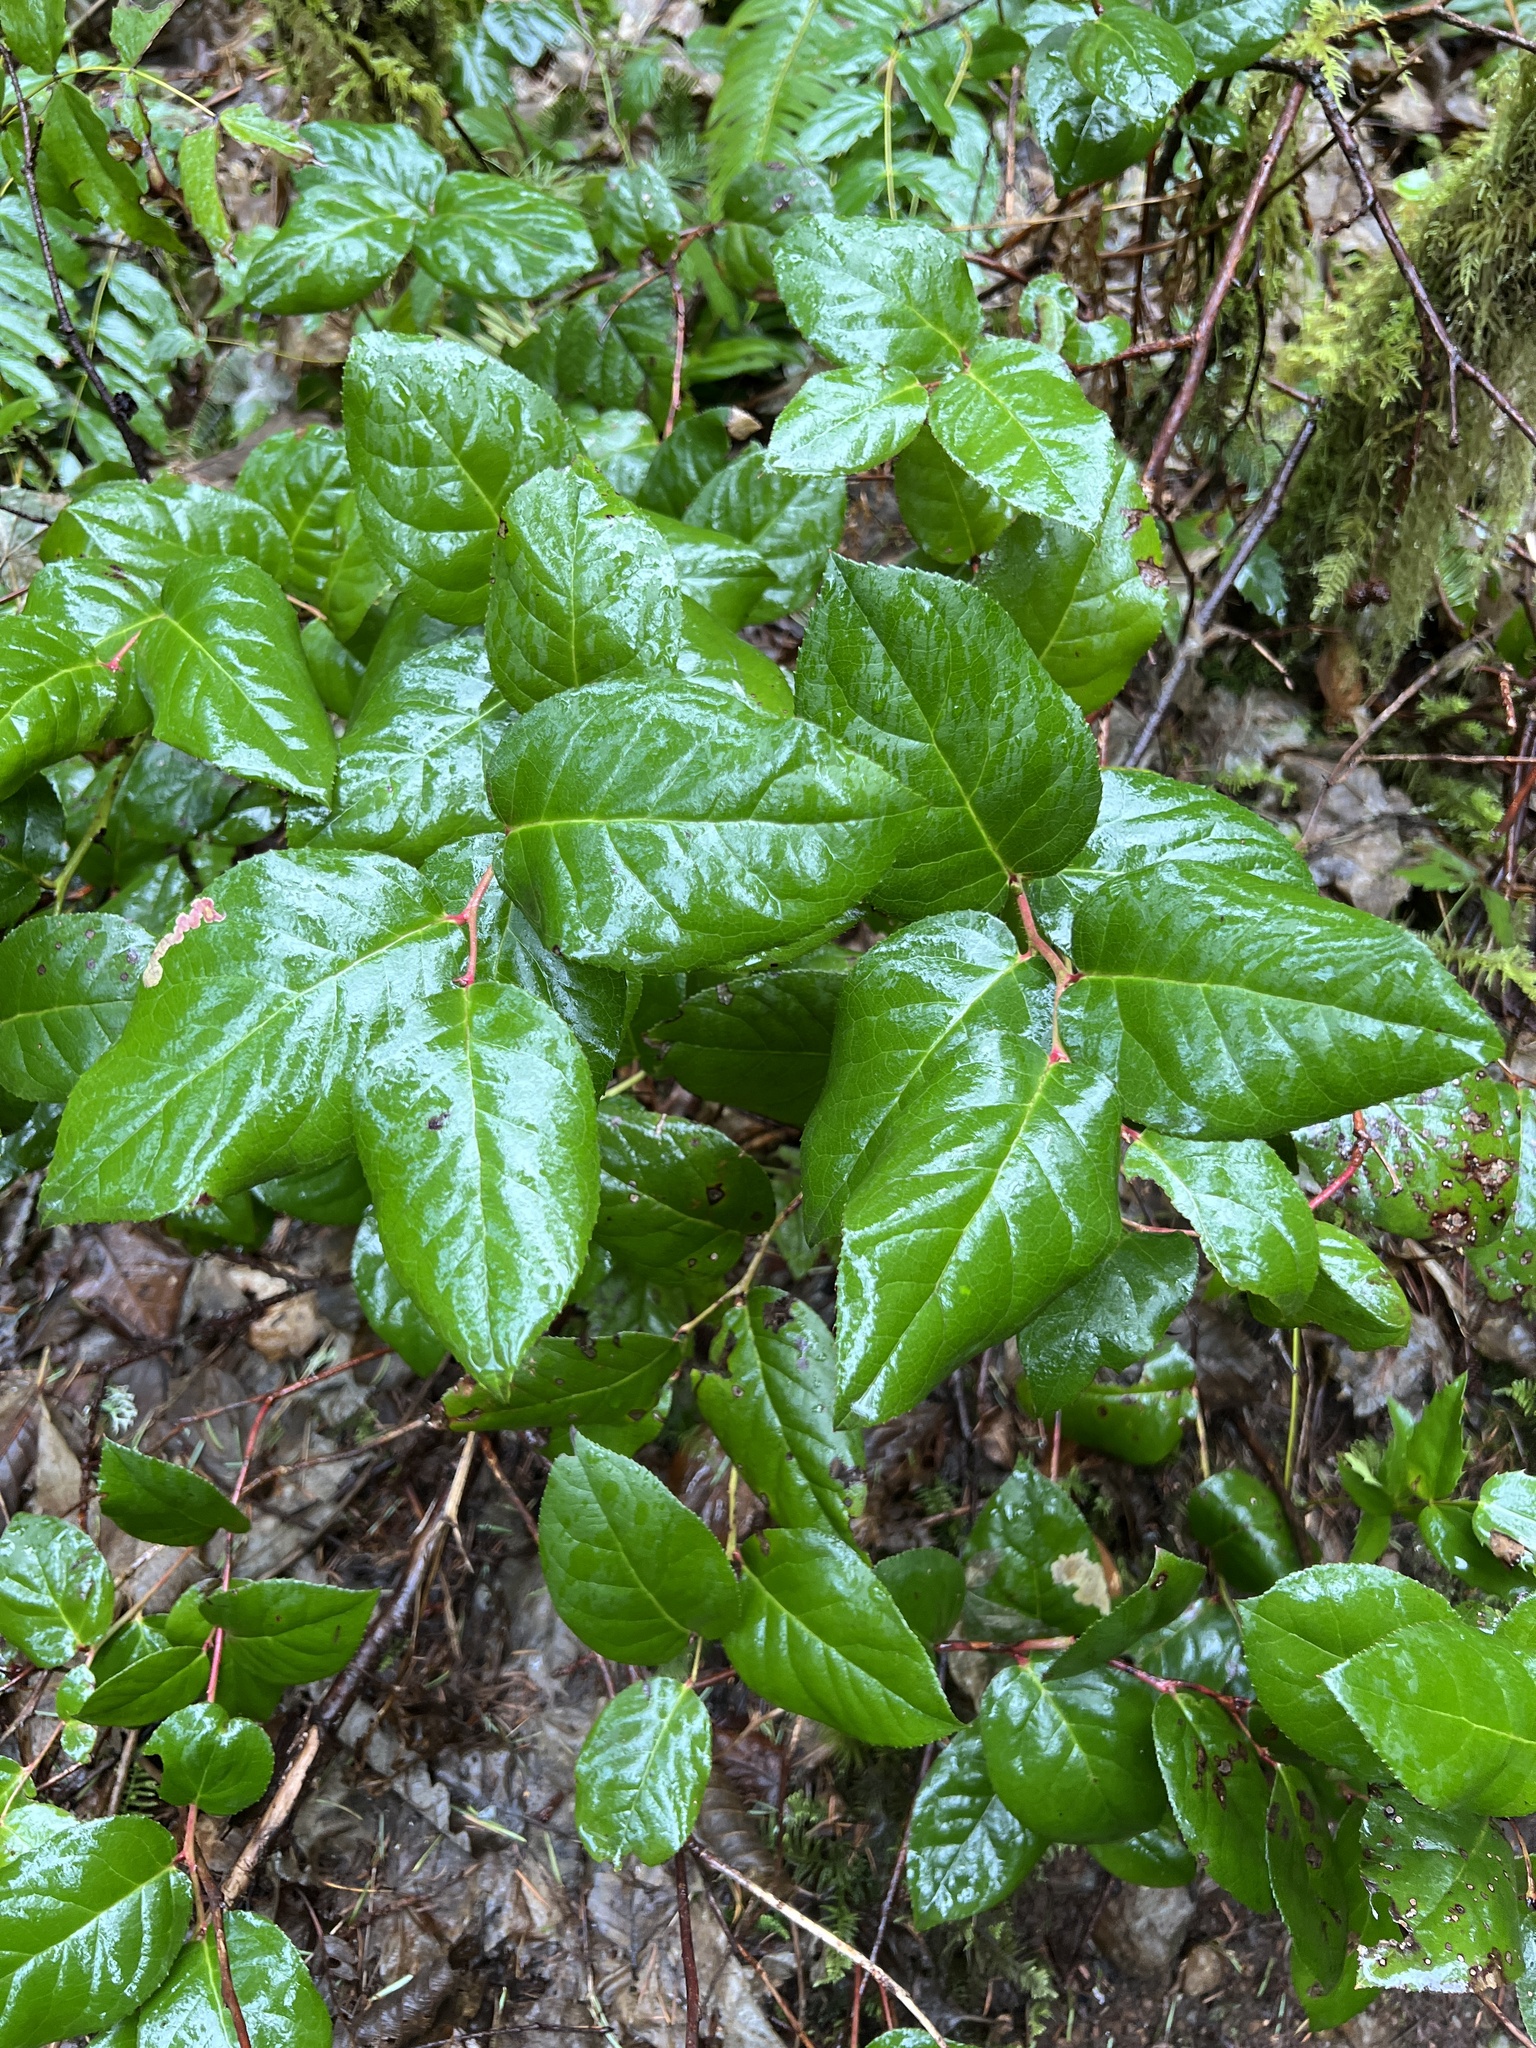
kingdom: Plantae
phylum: Tracheophyta
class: Magnoliopsida
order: Ericales
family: Ericaceae
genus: Gaultheria
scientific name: Gaultheria shallon
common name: Shallon
